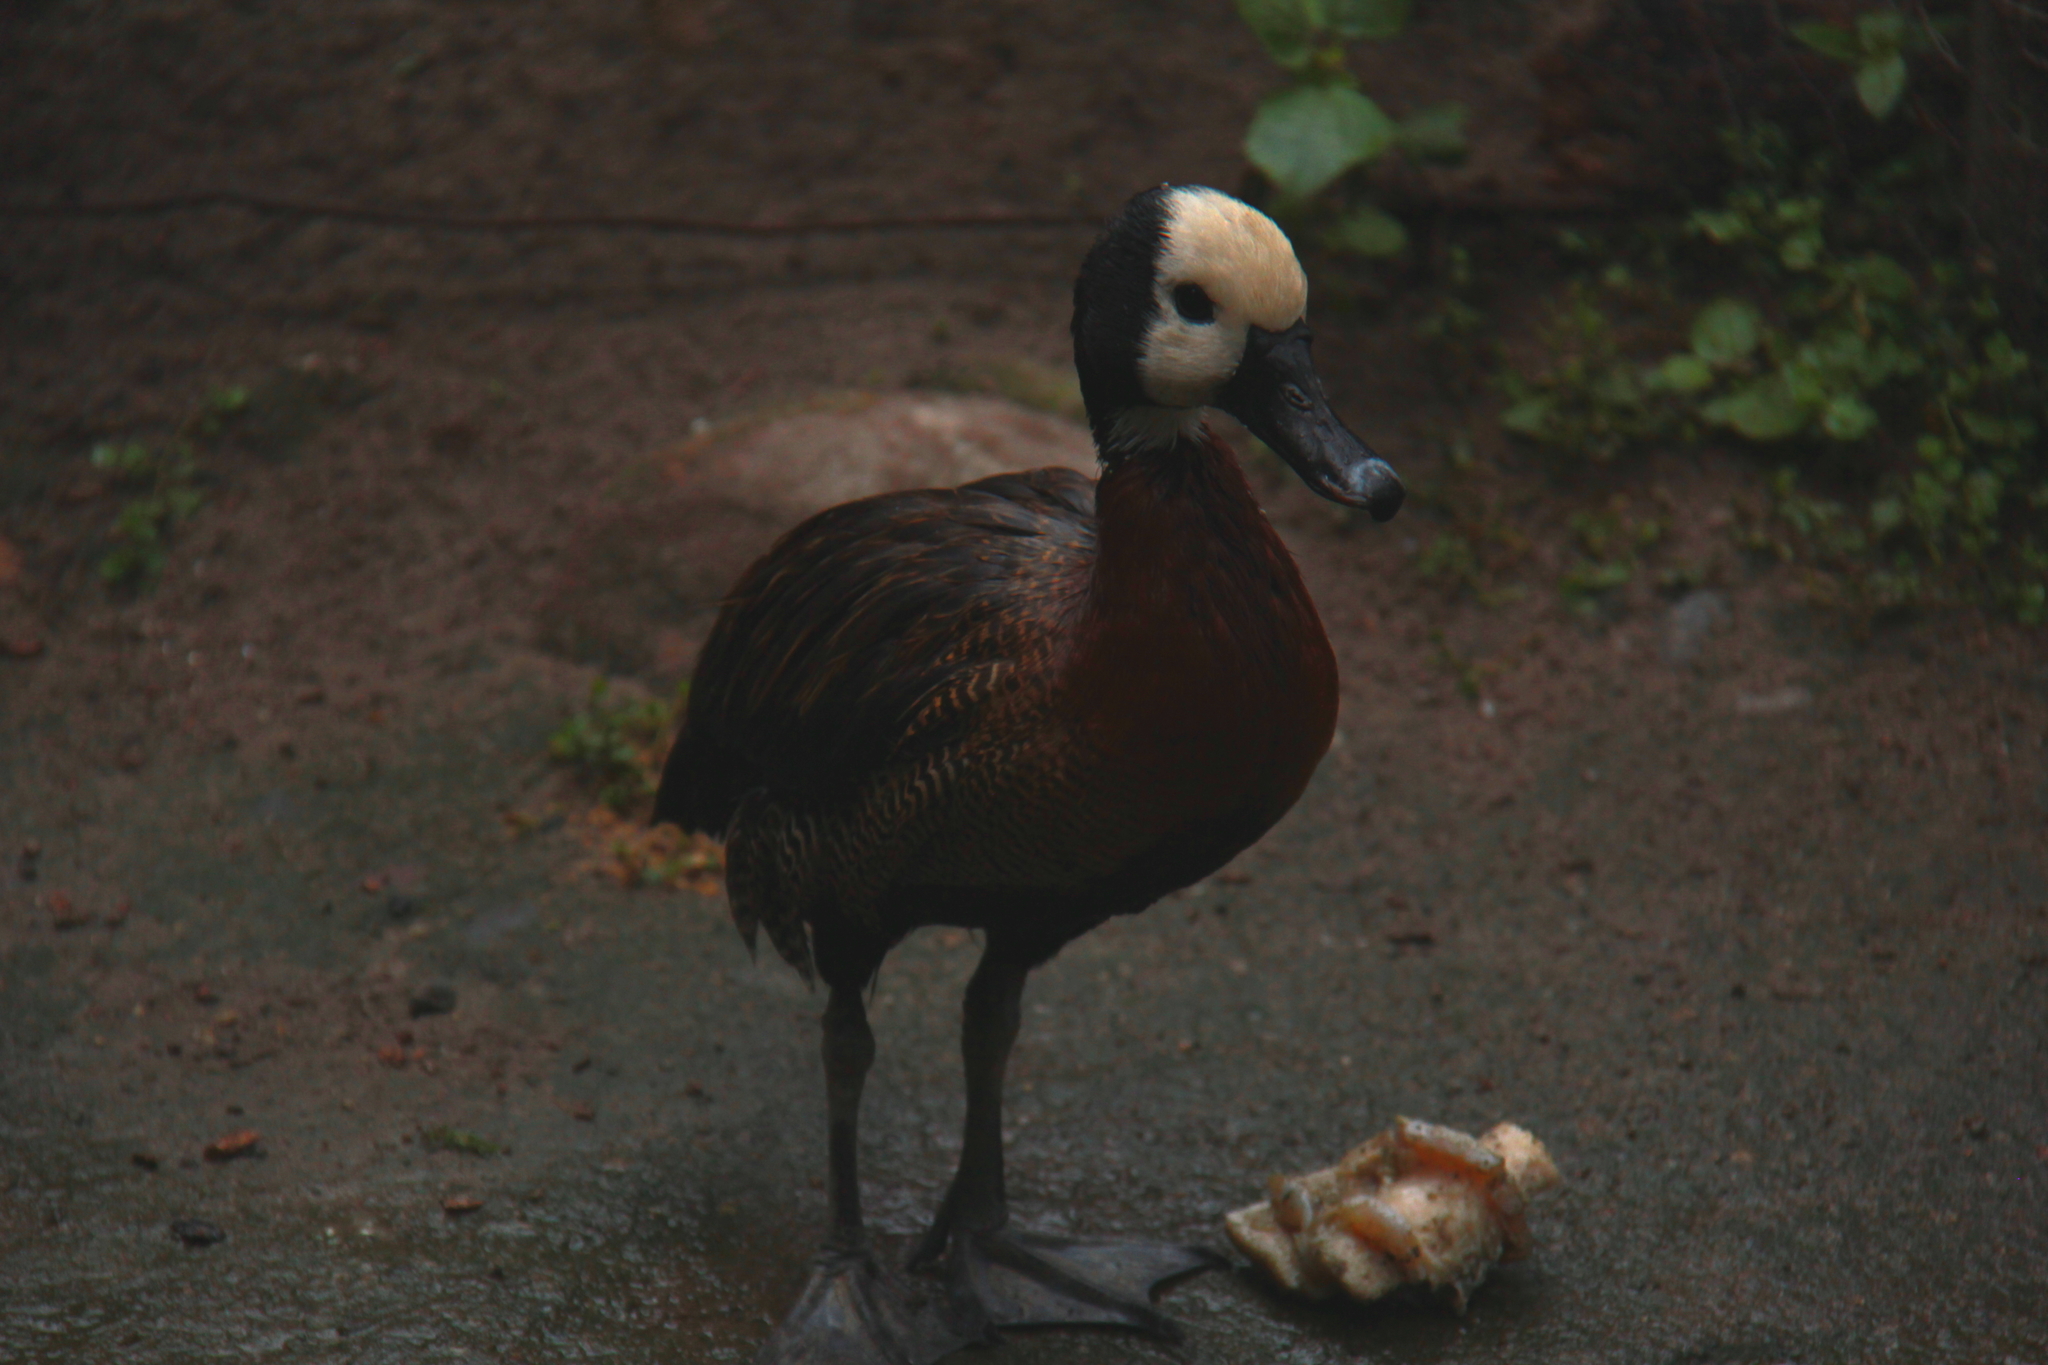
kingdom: Animalia
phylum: Chordata
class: Aves
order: Anseriformes
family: Anatidae
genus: Dendrocygna
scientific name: Dendrocygna viduata
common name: White-faced whistling duck
